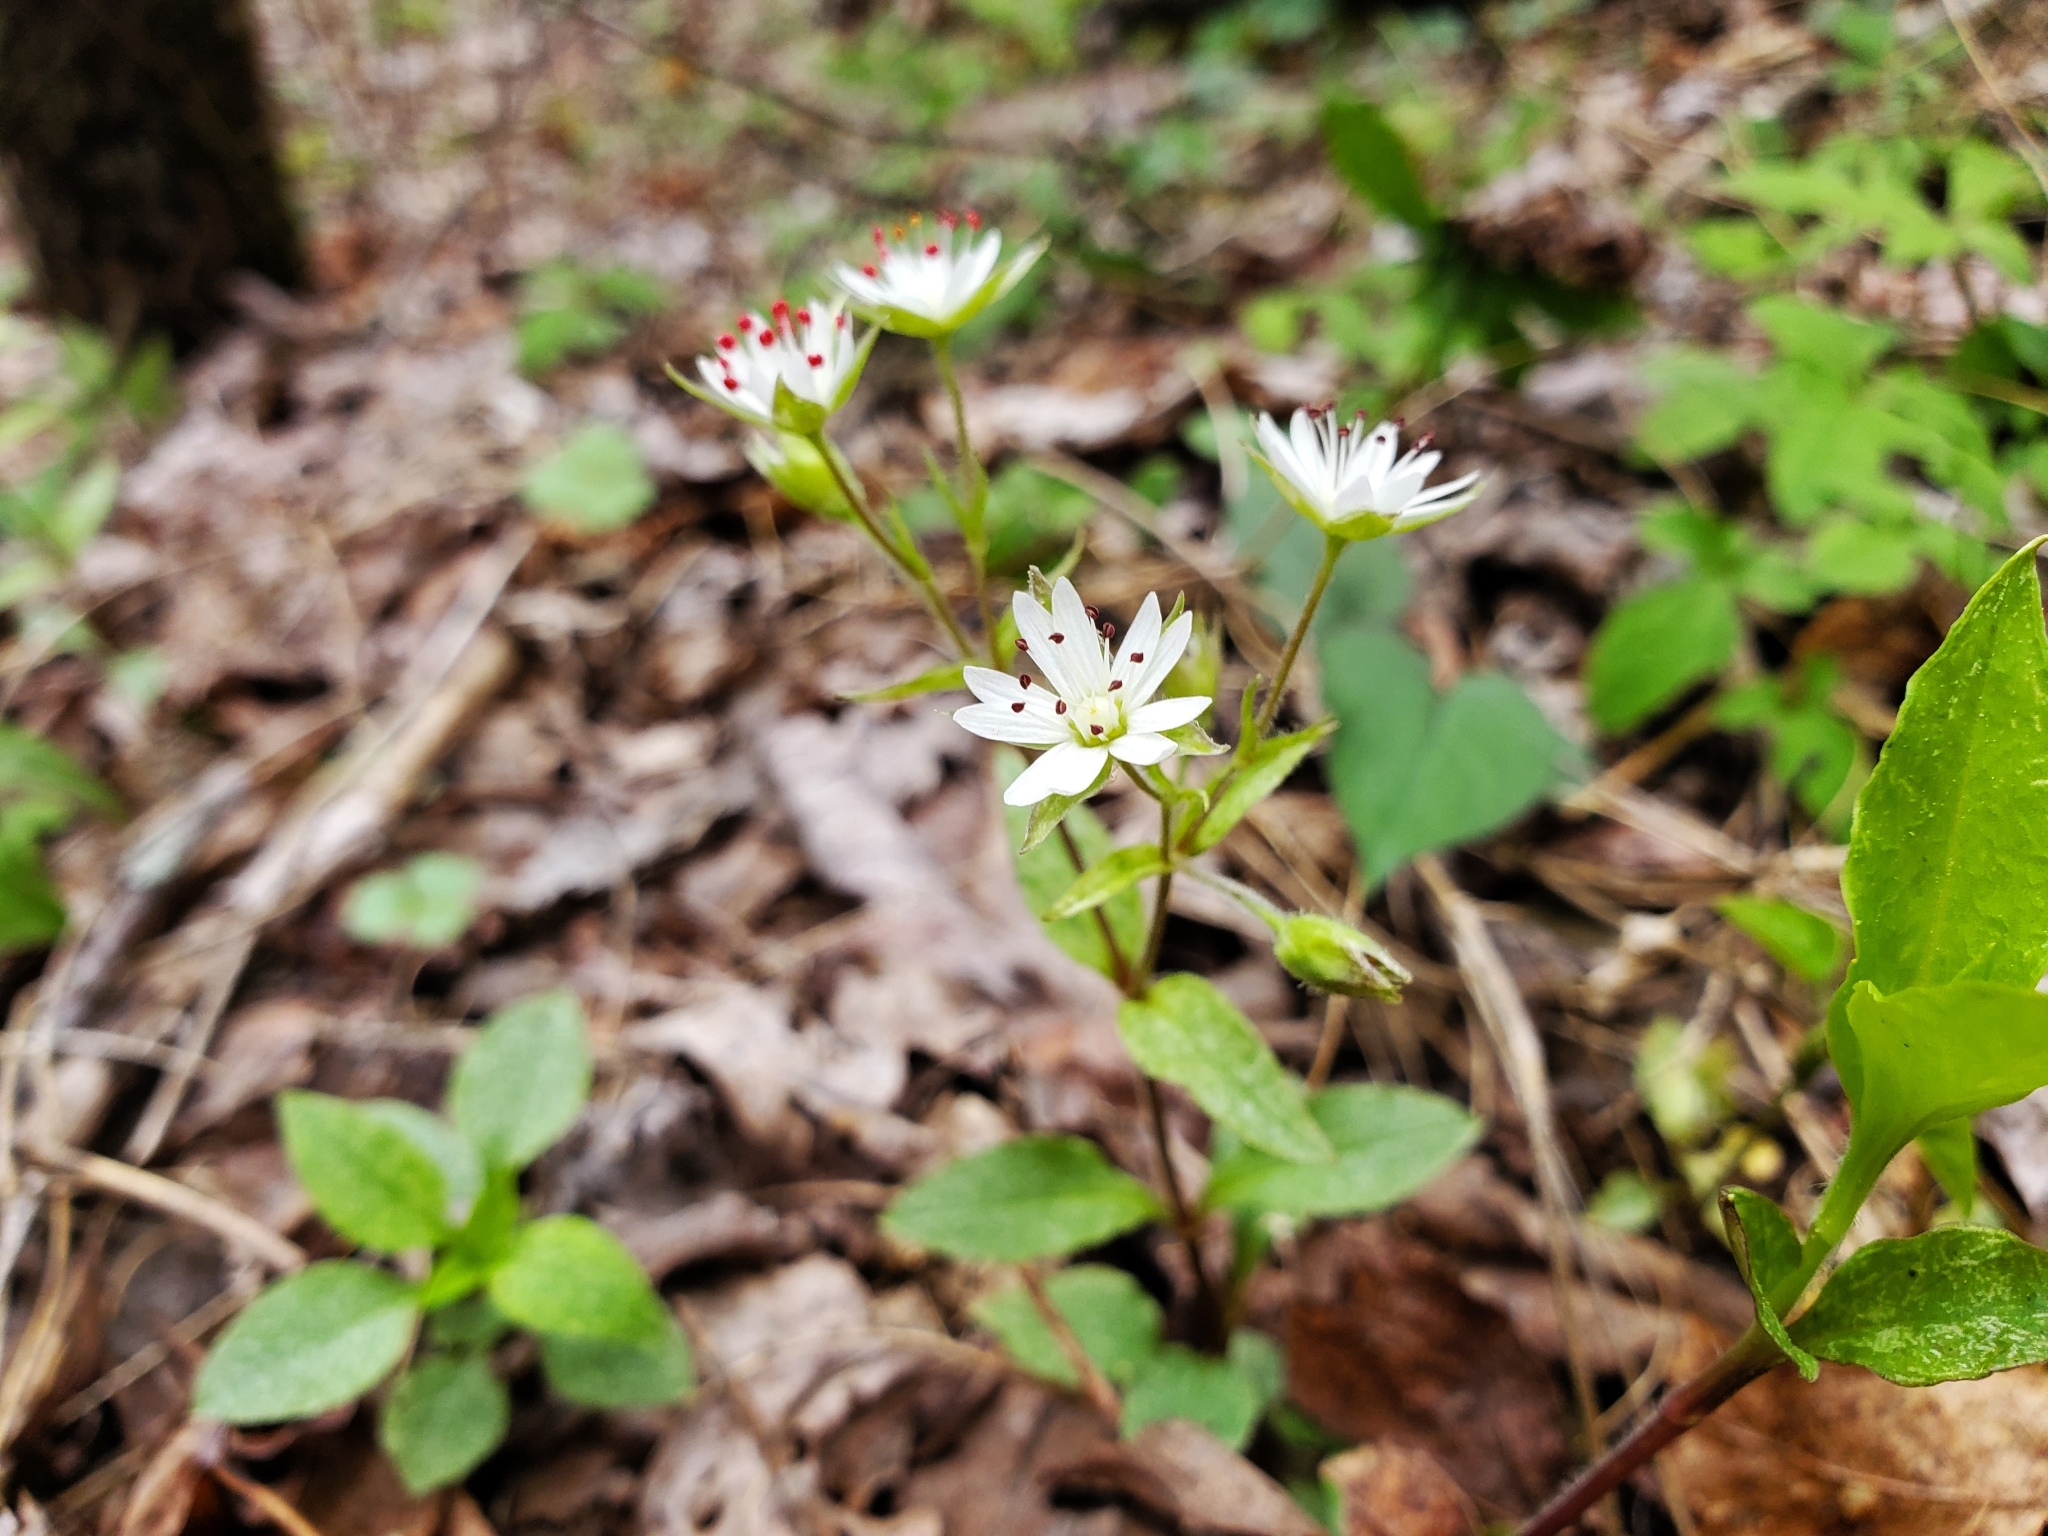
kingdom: Plantae
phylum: Tracheophyta
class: Magnoliopsida
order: Caryophyllales
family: Caryophyllaceae
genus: Stellaria
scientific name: Stellaria pubera
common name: Star chickweed
